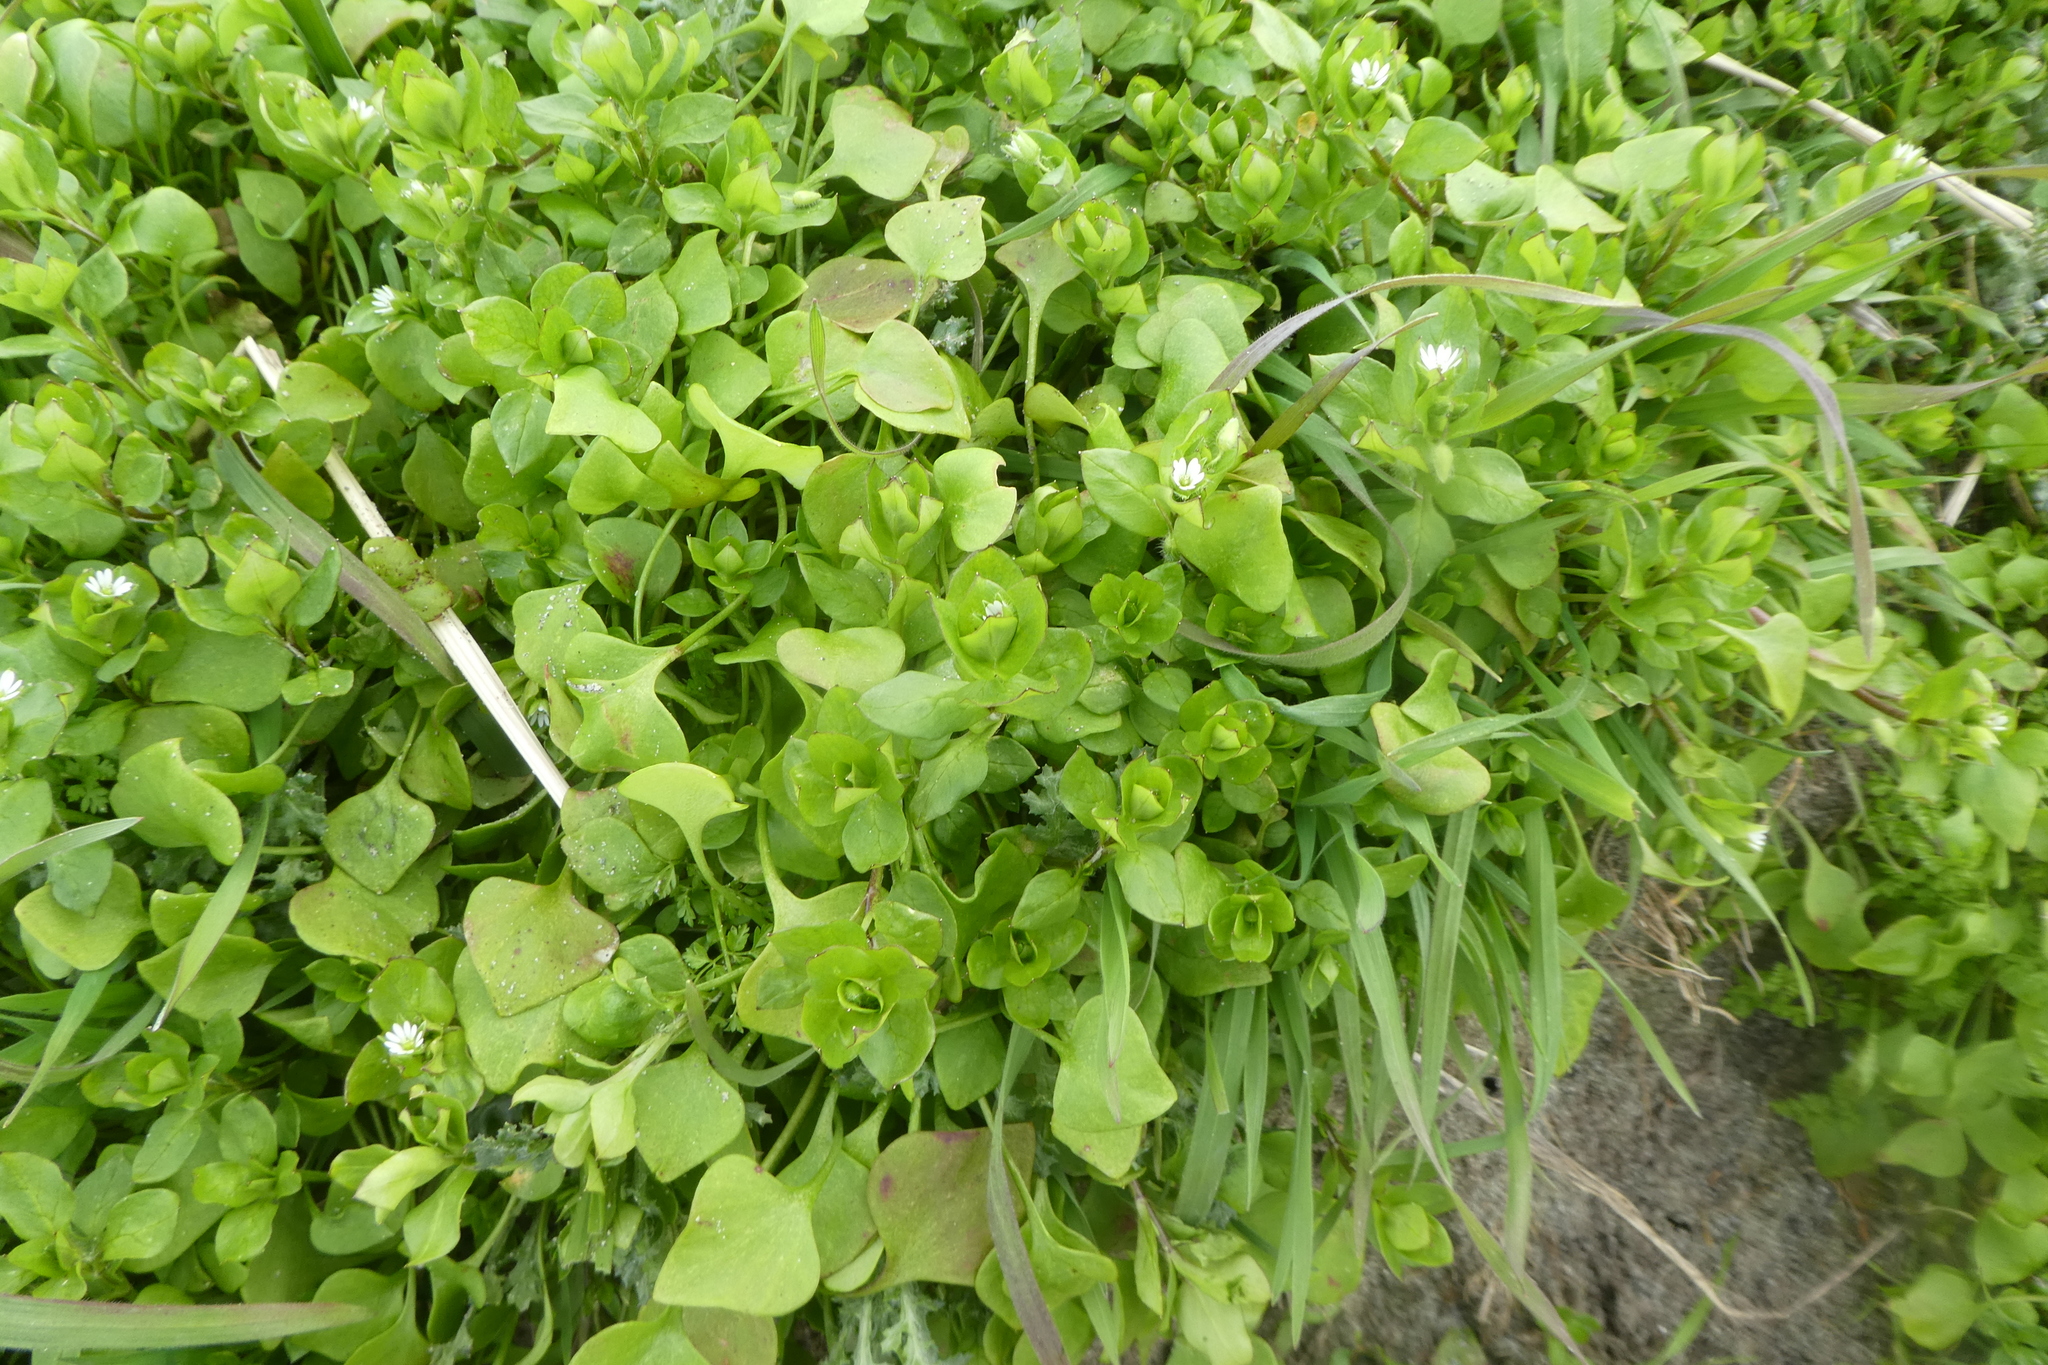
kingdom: Plantae
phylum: Tracheophyta
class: Magnoliopsida
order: Caryophyllales
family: Caryophyllaceae
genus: Stellaria
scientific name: Stellaria media
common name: Common chickweed
